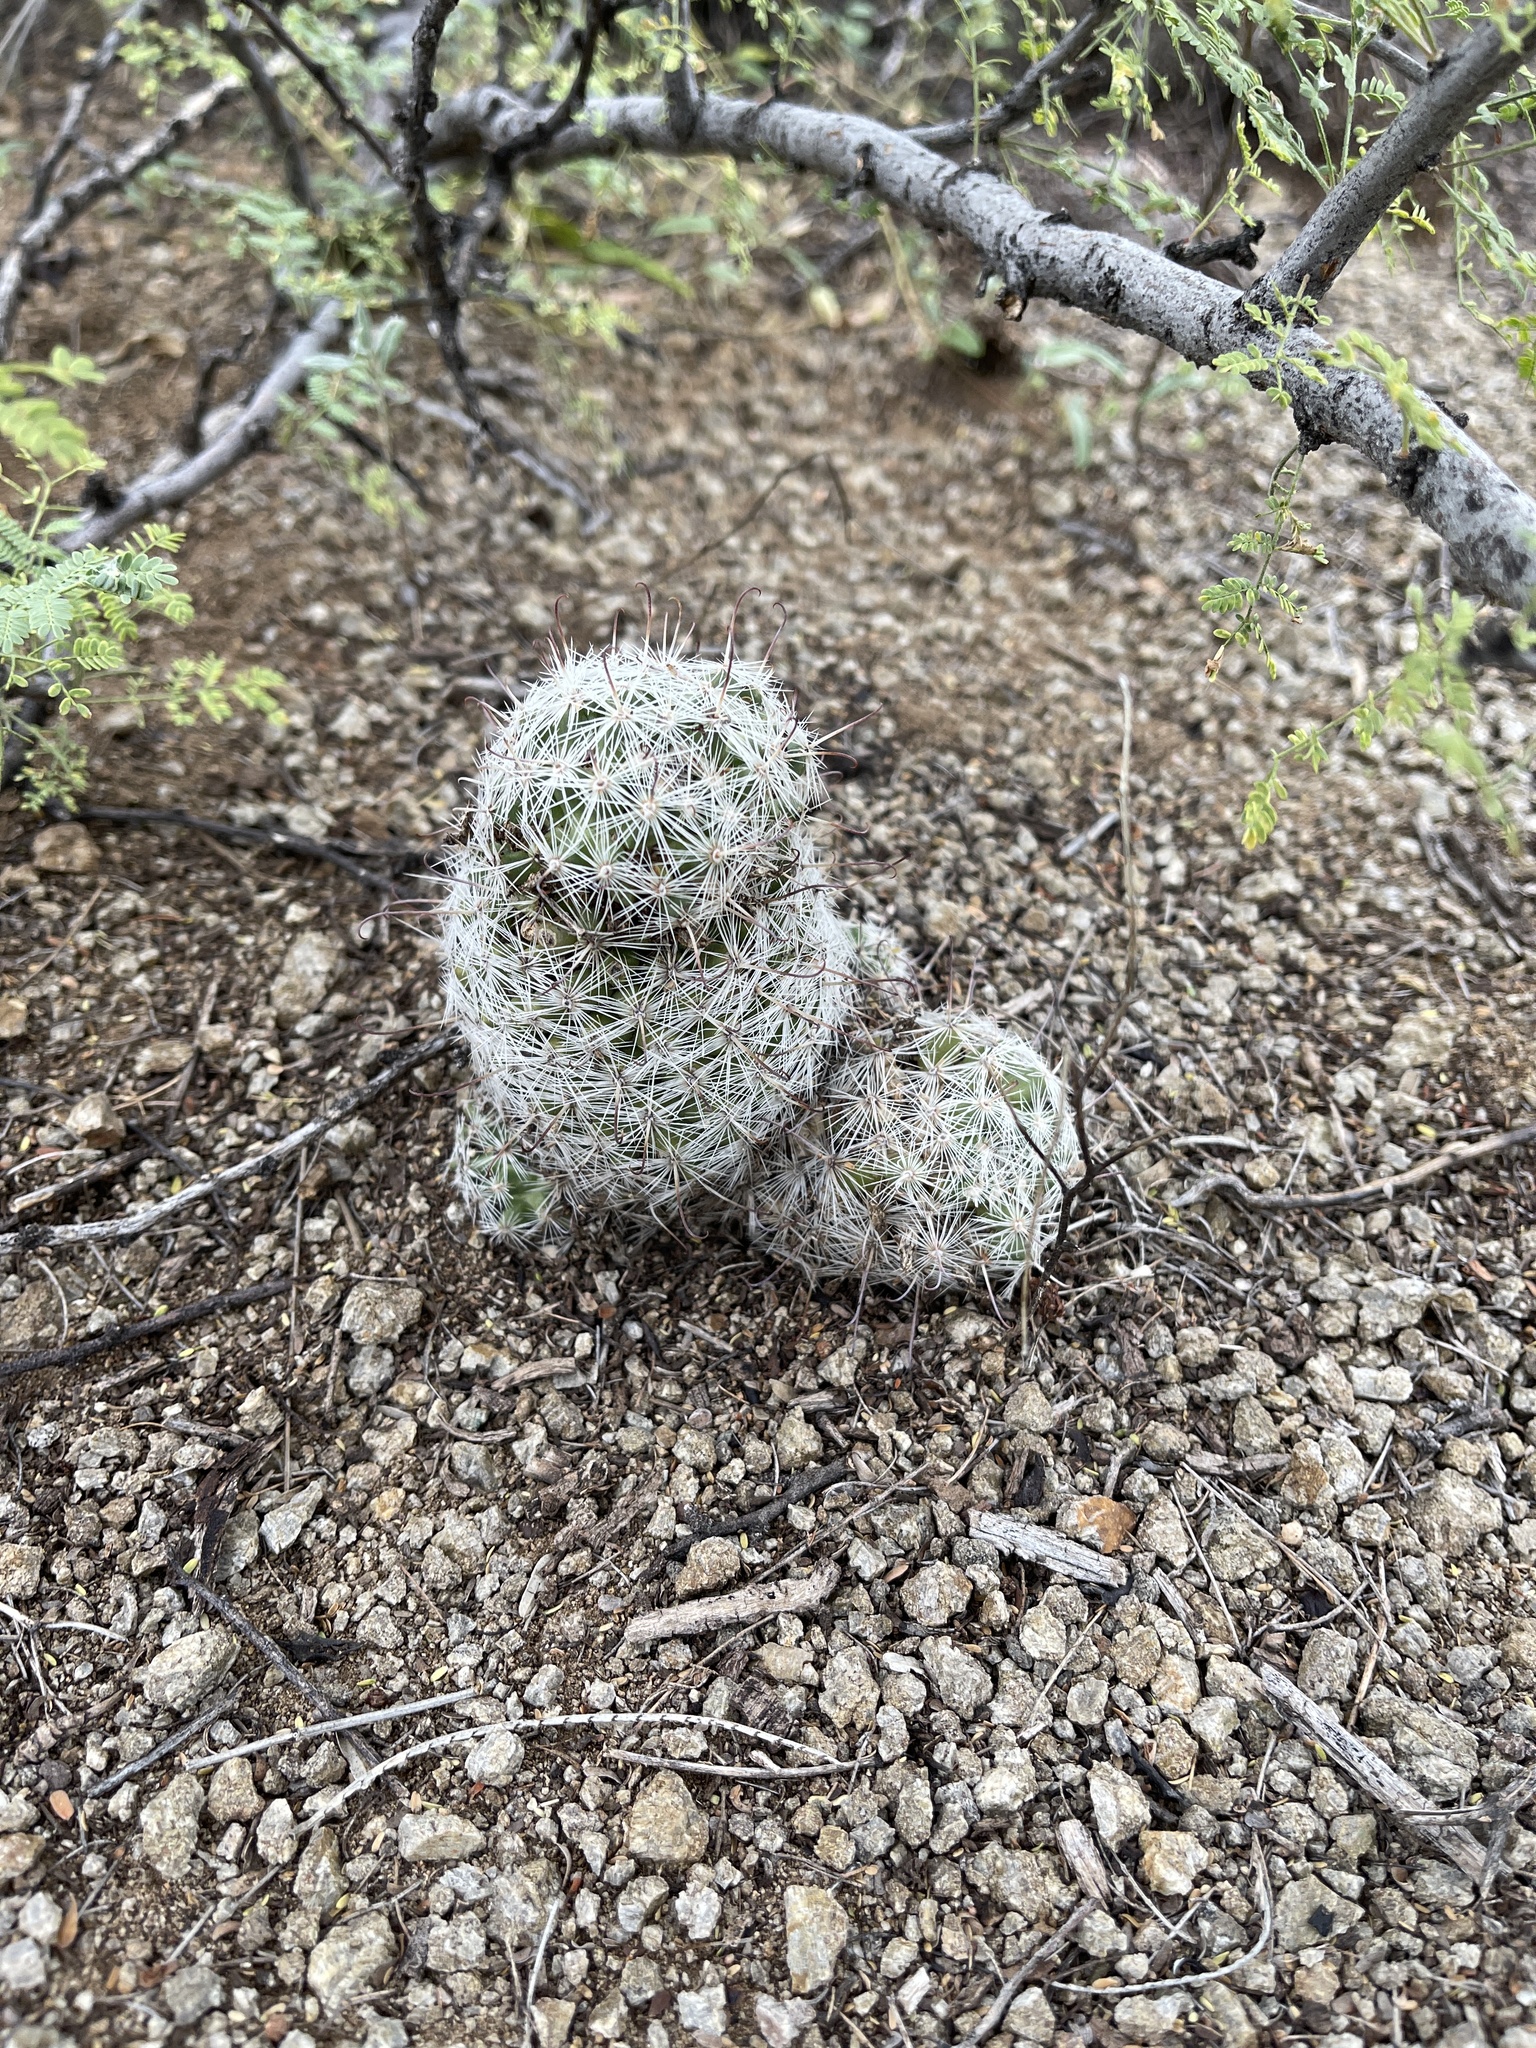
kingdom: Plantae
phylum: Tracheophyta
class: Magnoliopsida
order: Caryophyllales
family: Cactaceae
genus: Cochemiea
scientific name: Cochemiea grahamii
